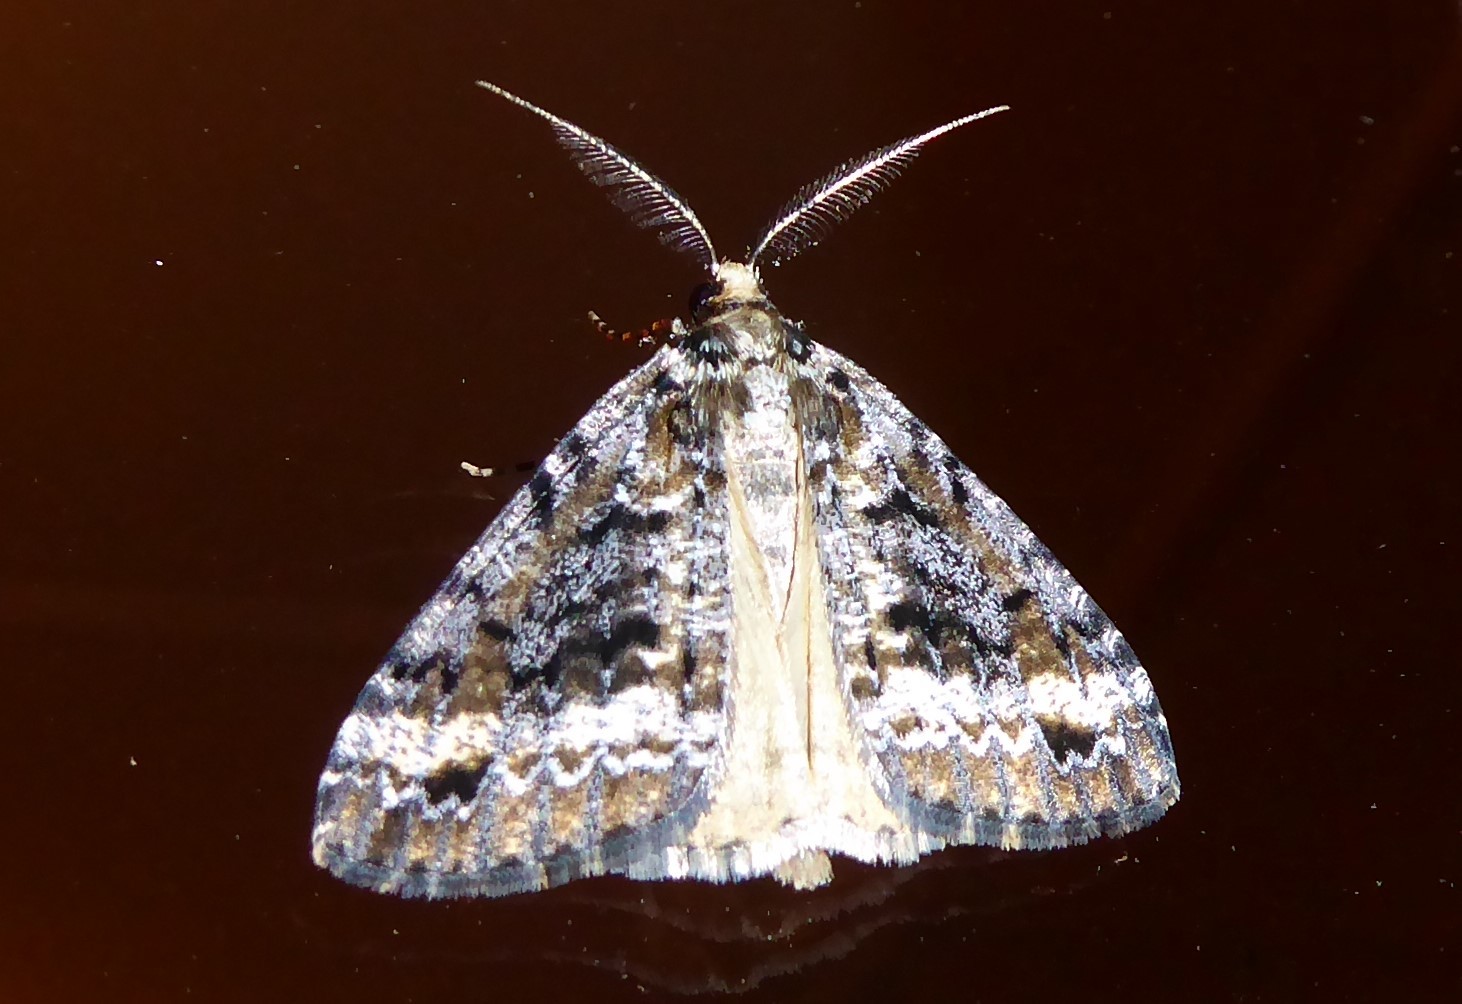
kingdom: Animalia
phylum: Arthropoda
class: Insecta
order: Lepidoptera
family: Geometridae
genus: Pseudocoremia
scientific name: Pseudocoremia leucelaea
